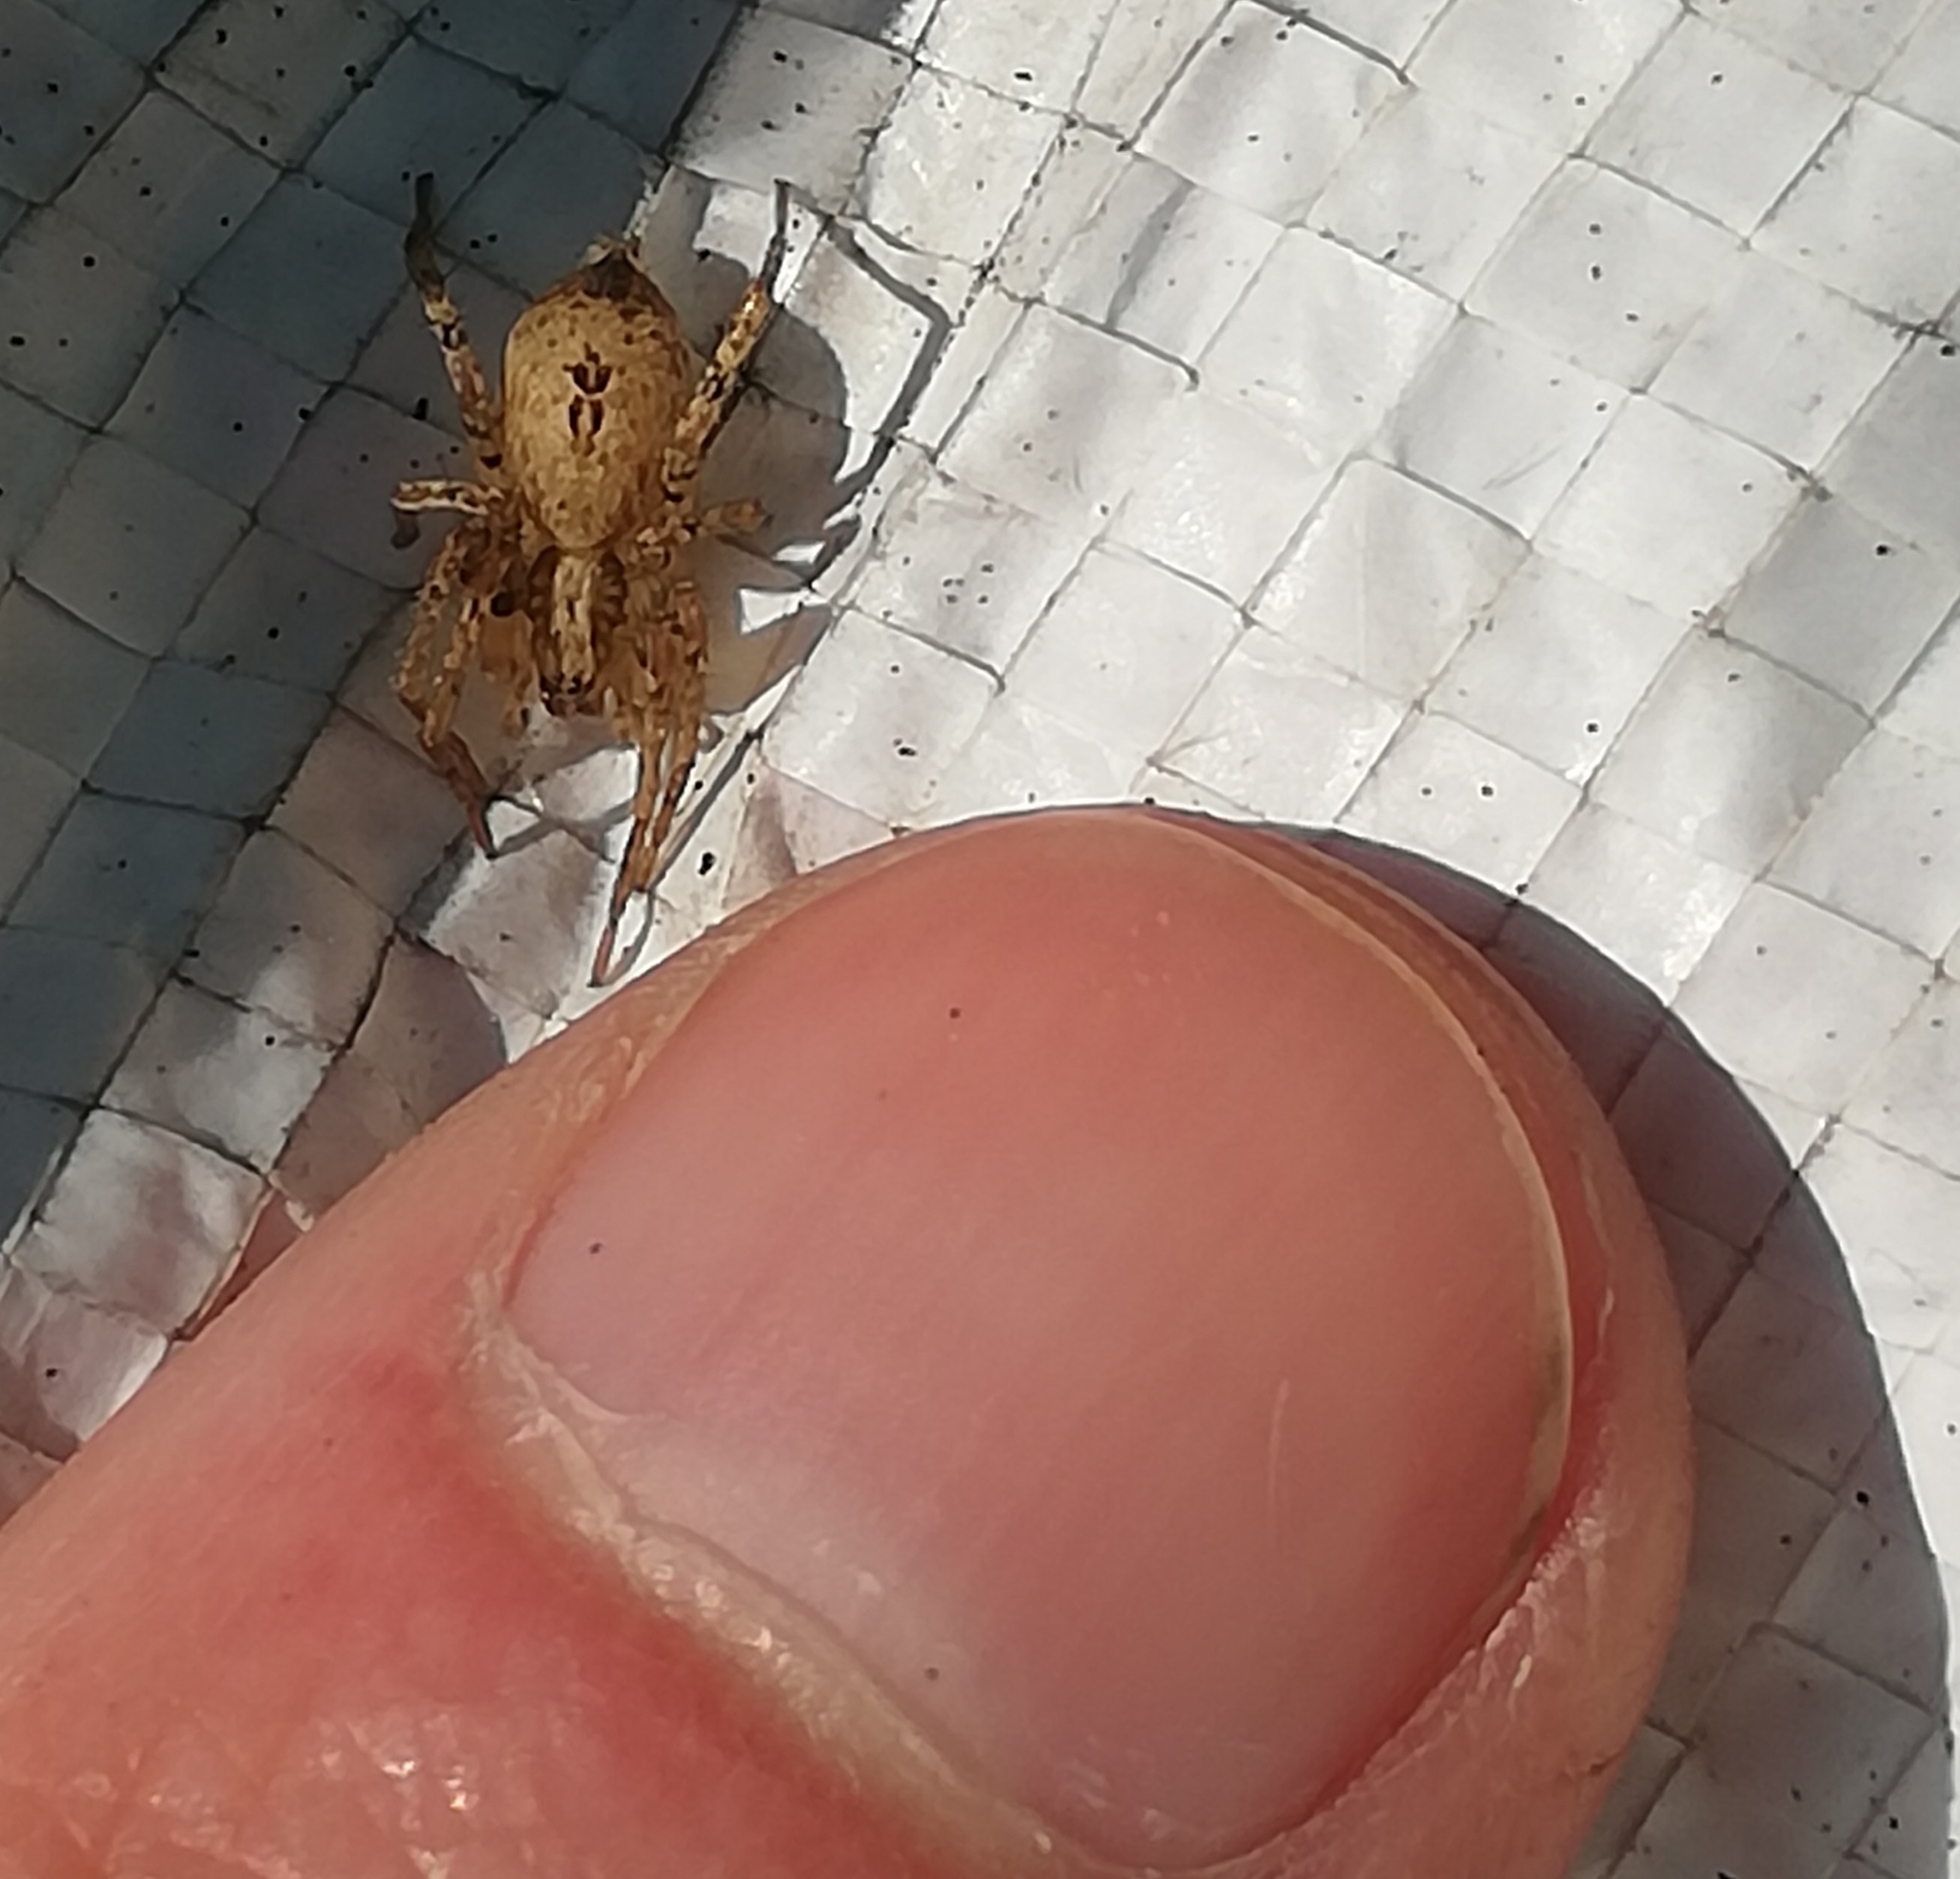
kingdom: Animalia
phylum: Arthropoda
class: Arachnida
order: Araneae
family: Anyphaenidae
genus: Anyphaena
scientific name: Anyphaena accentuata
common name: Buzzing spider
